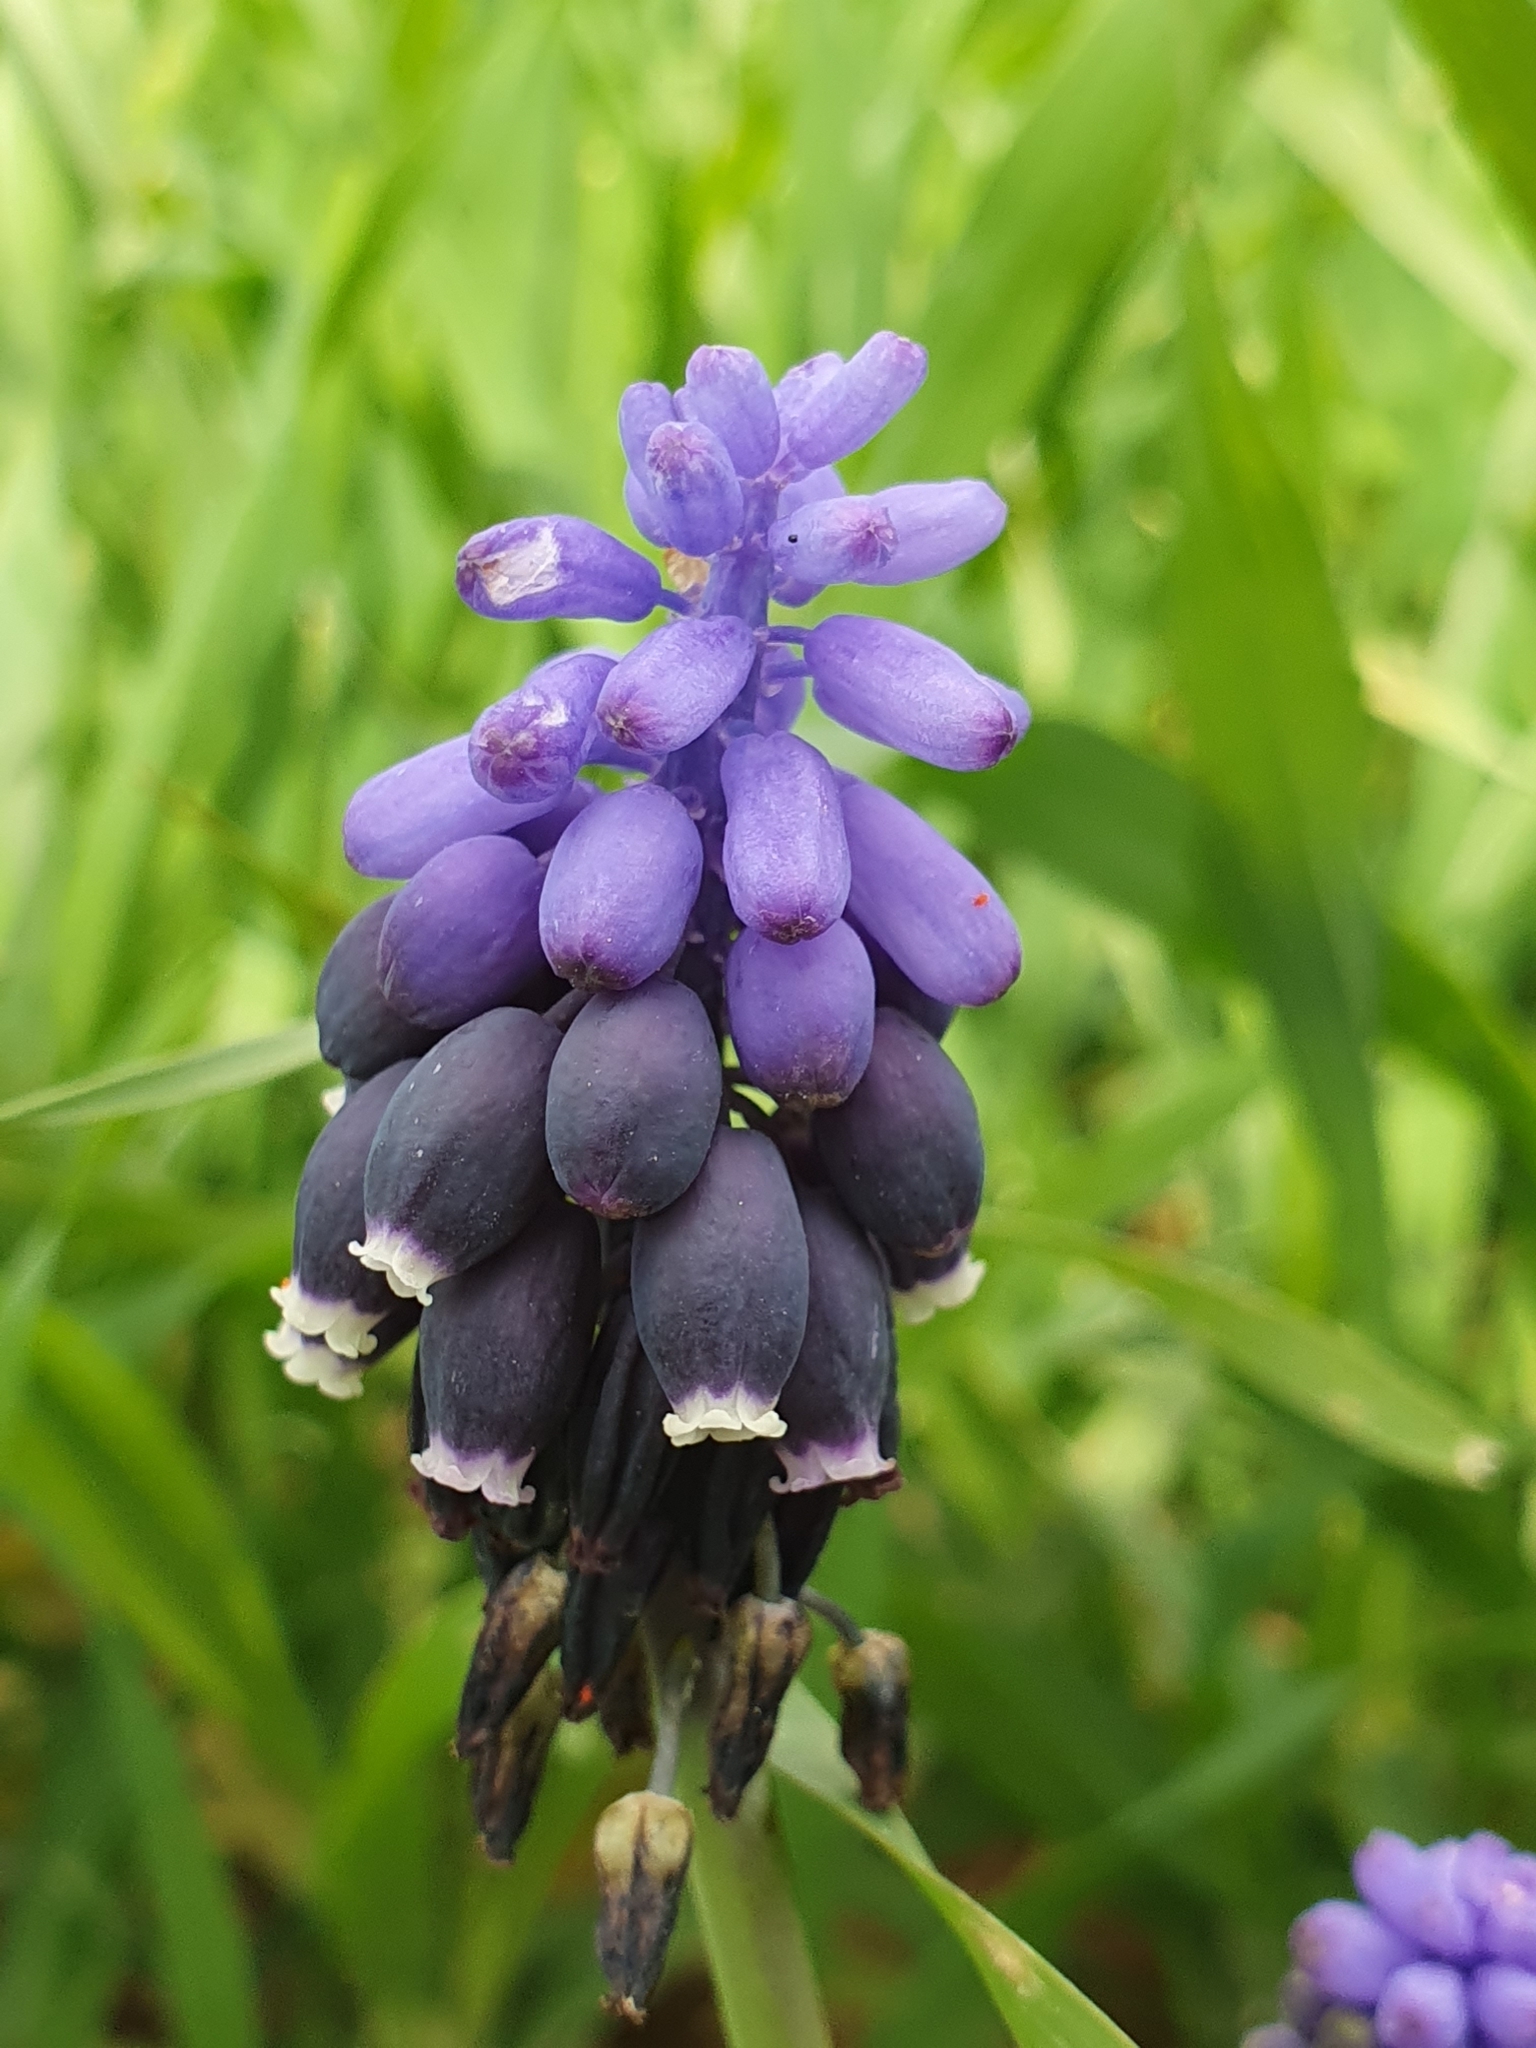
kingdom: Plantae
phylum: Tracheophyta
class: Liliopsida
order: Asparagales
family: Asparagaceae
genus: Muscari
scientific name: Muscari neglectum
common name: Grape-hyacinth
